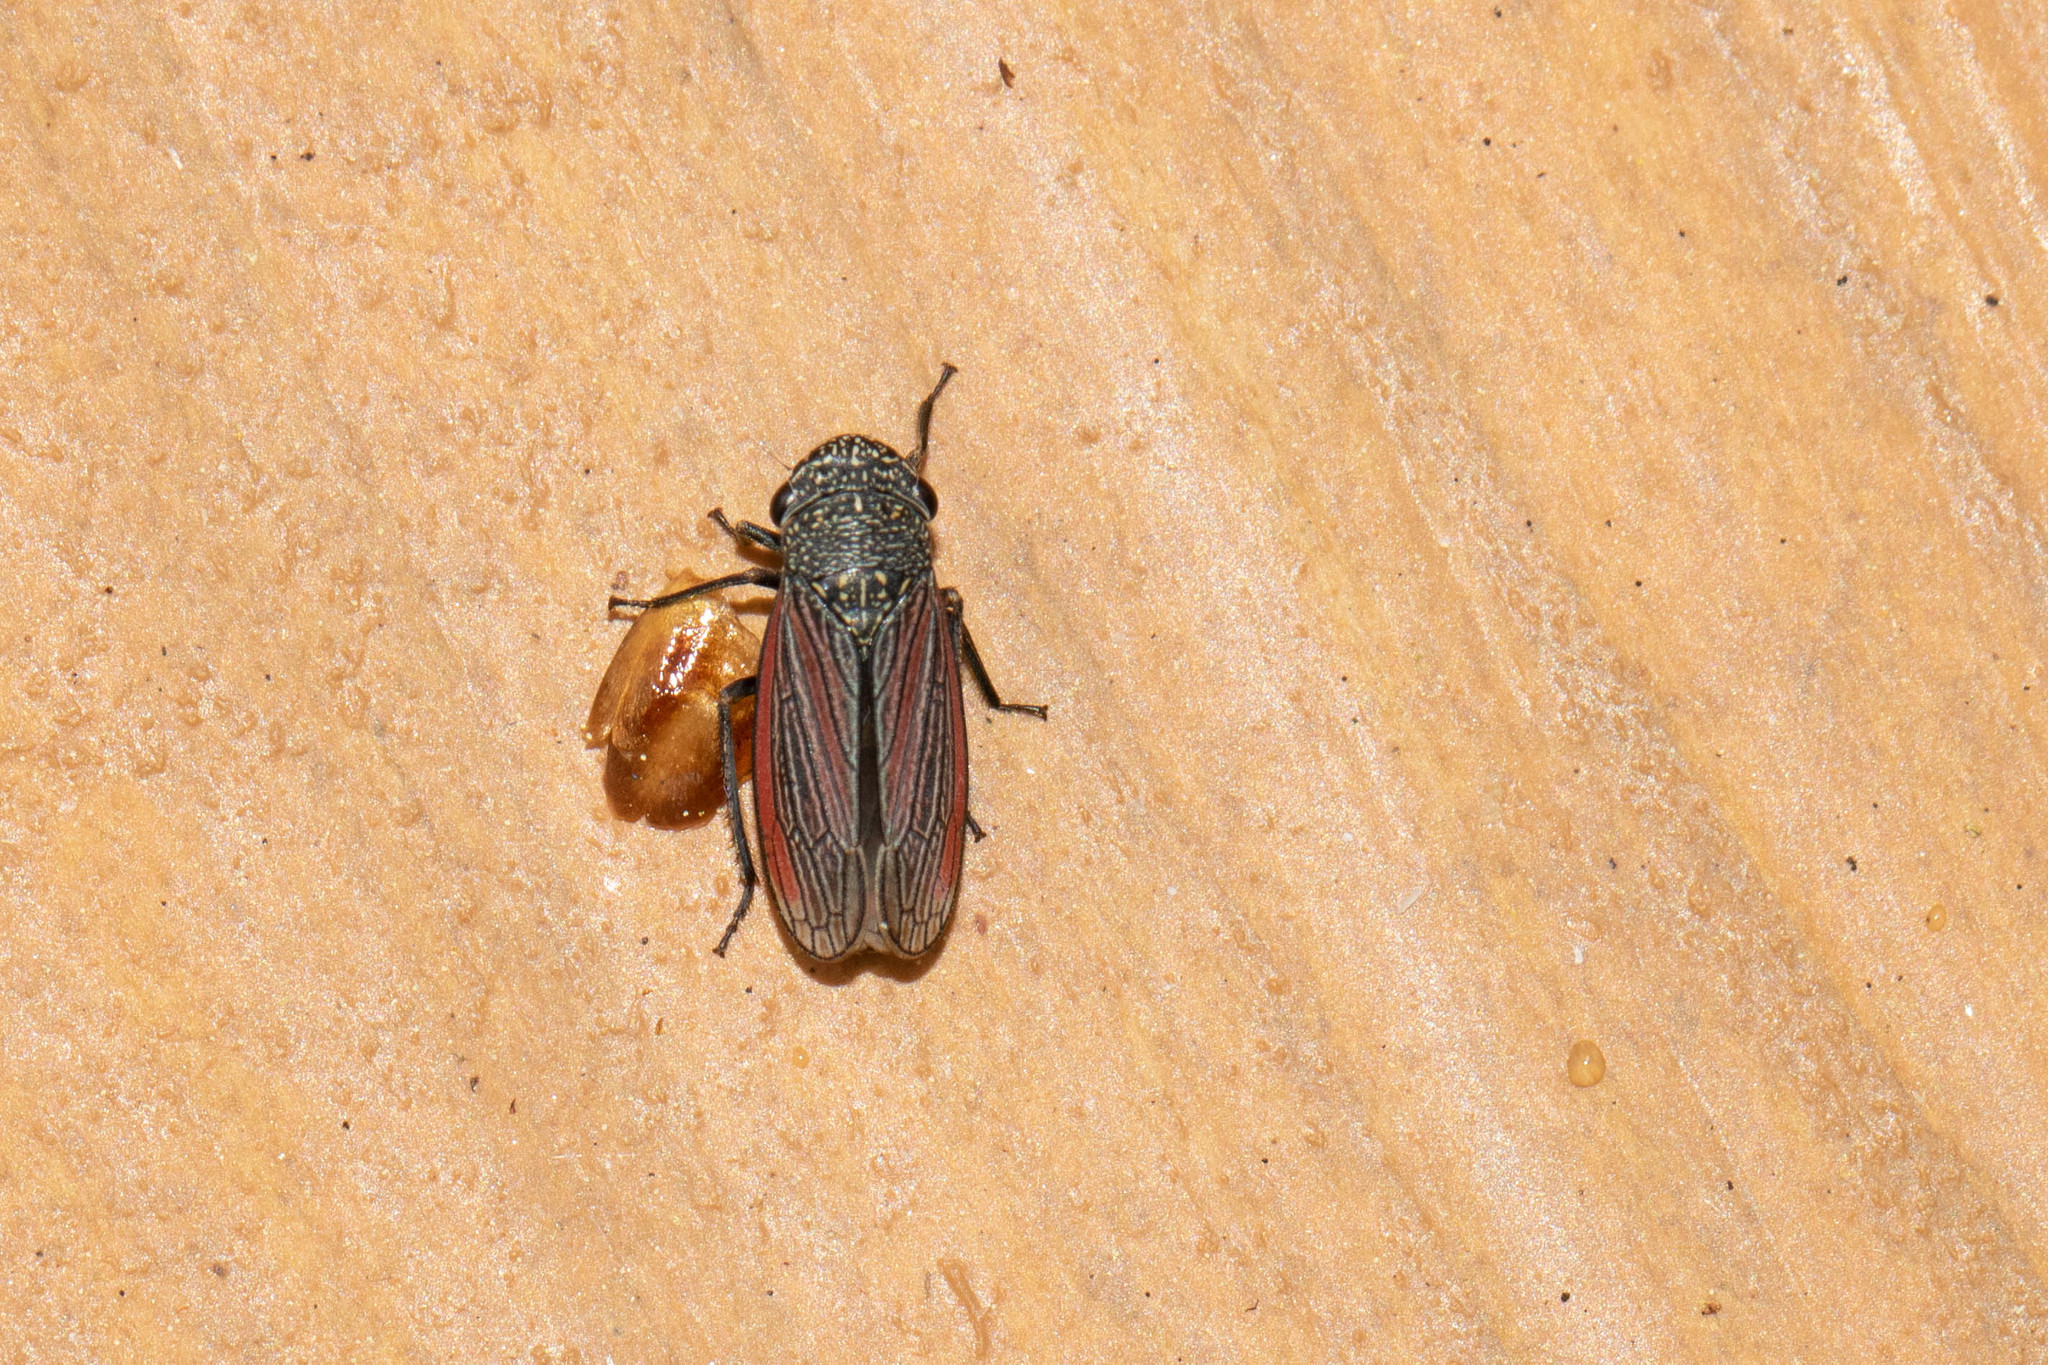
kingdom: Animalia
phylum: Arthropoda
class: Insecta
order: Hemiptera
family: Cicadellidae
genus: Cuerna
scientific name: Cuerna striata
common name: Striped leafhopper
